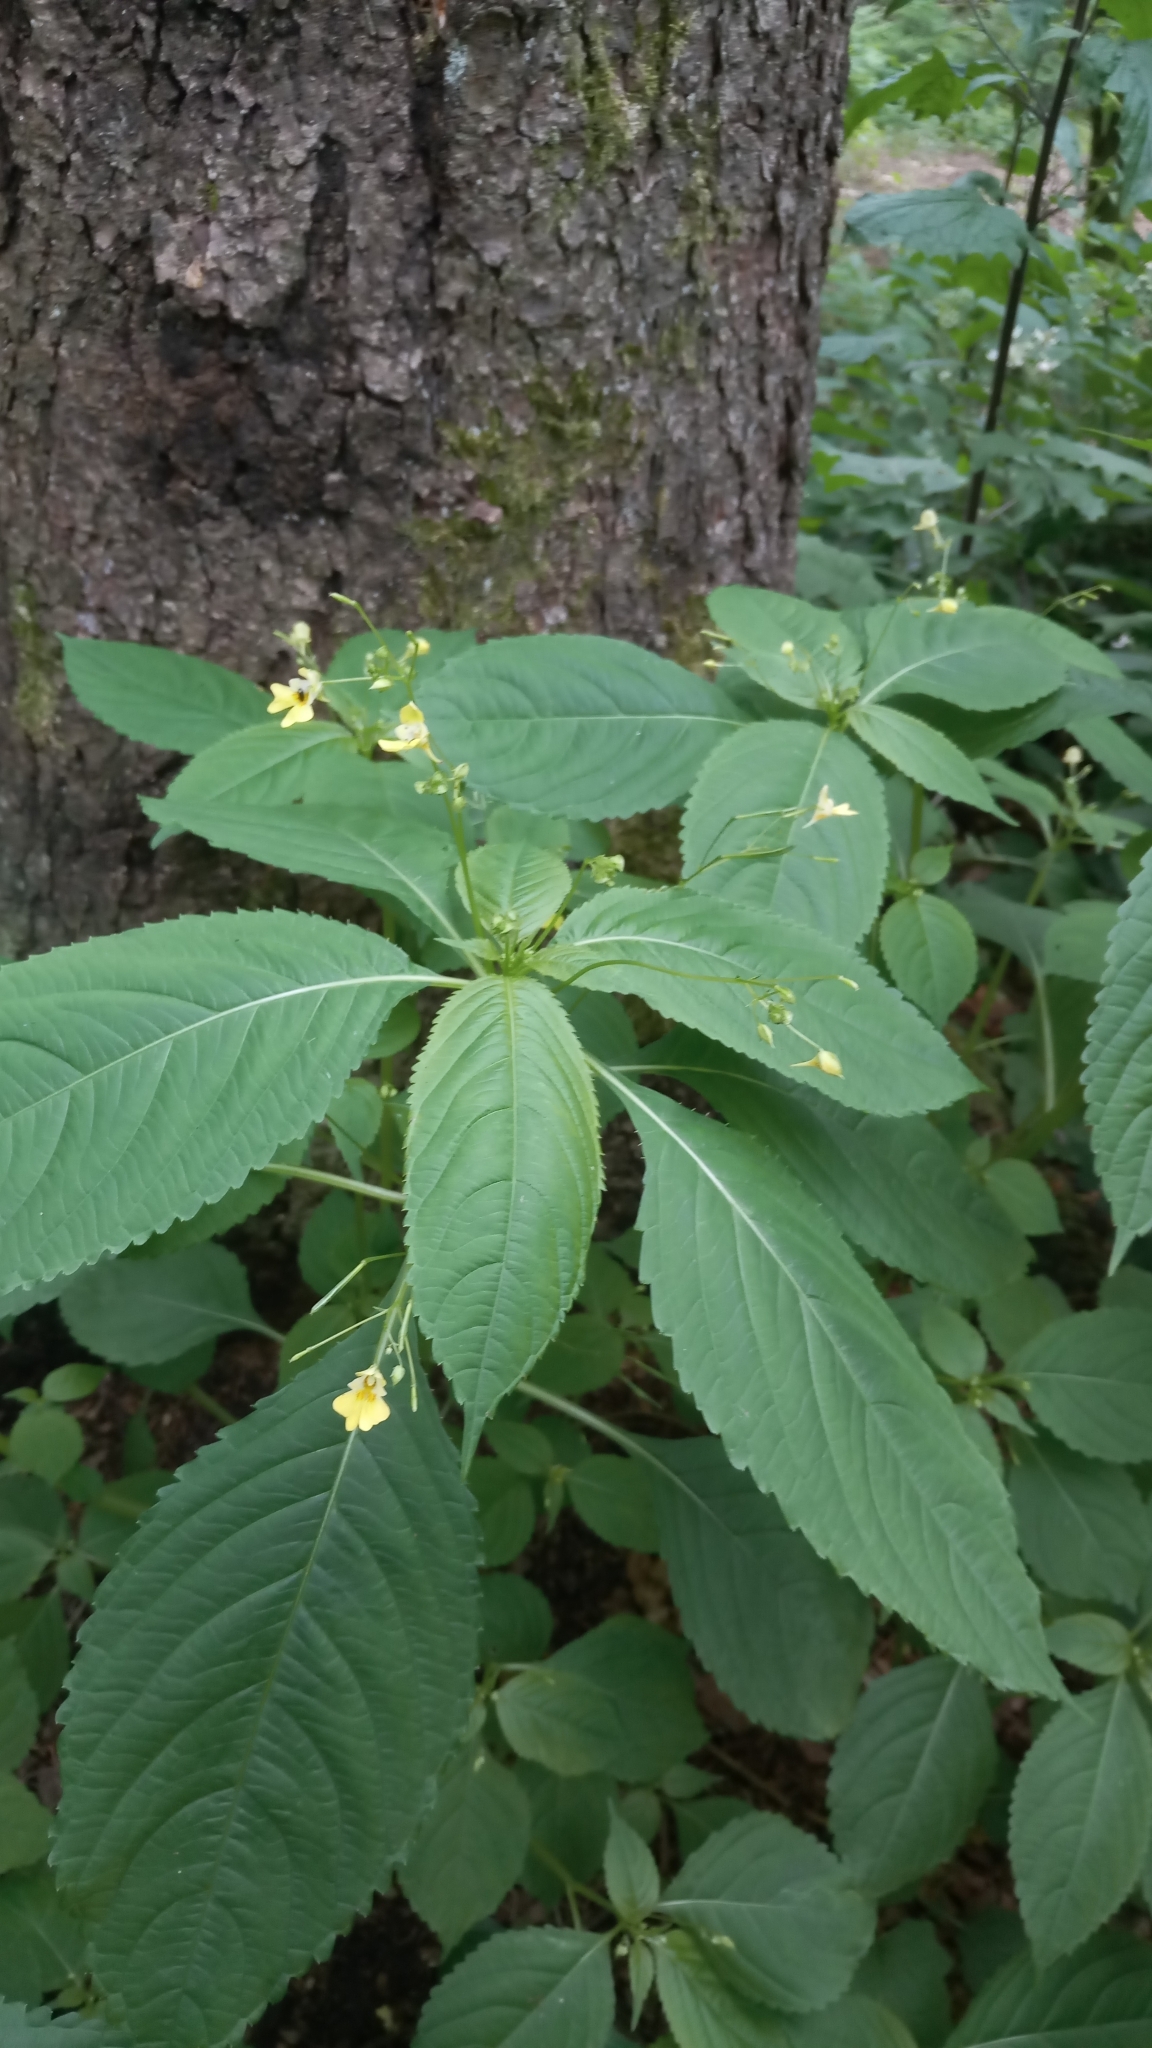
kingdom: Plantae
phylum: Tracheophyta
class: Magnoliopsida
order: Ericales
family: Balsaminaceae
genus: Impatiens
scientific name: Impatiens parviflora
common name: Small balsam
